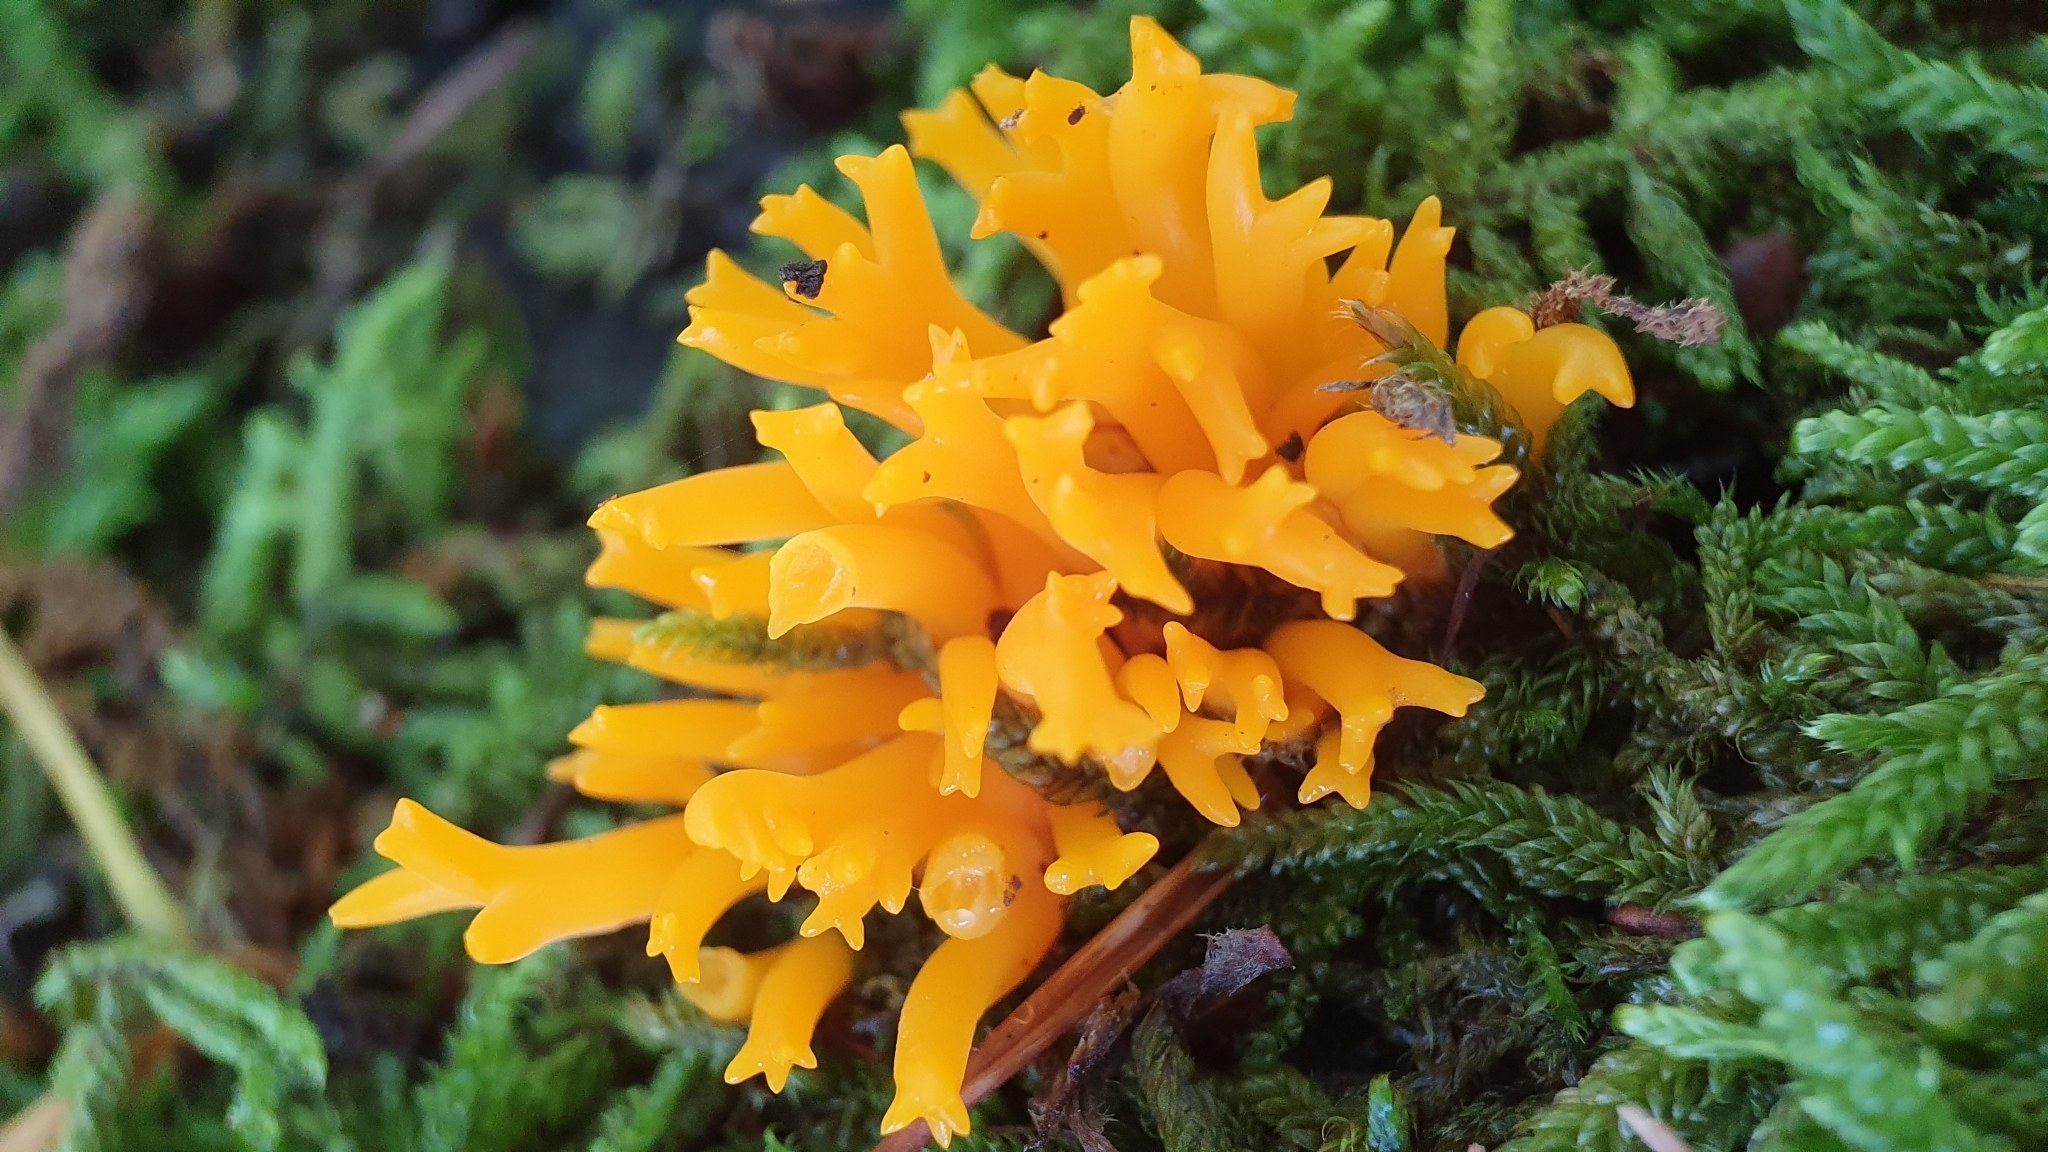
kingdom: Fungi
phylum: Basidiomycota
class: Dacrymycetes
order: Dacrymycetales
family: Dacrymycetaceae
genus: Calocera
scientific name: Calocera viscosa
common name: Yellow stagshorn
